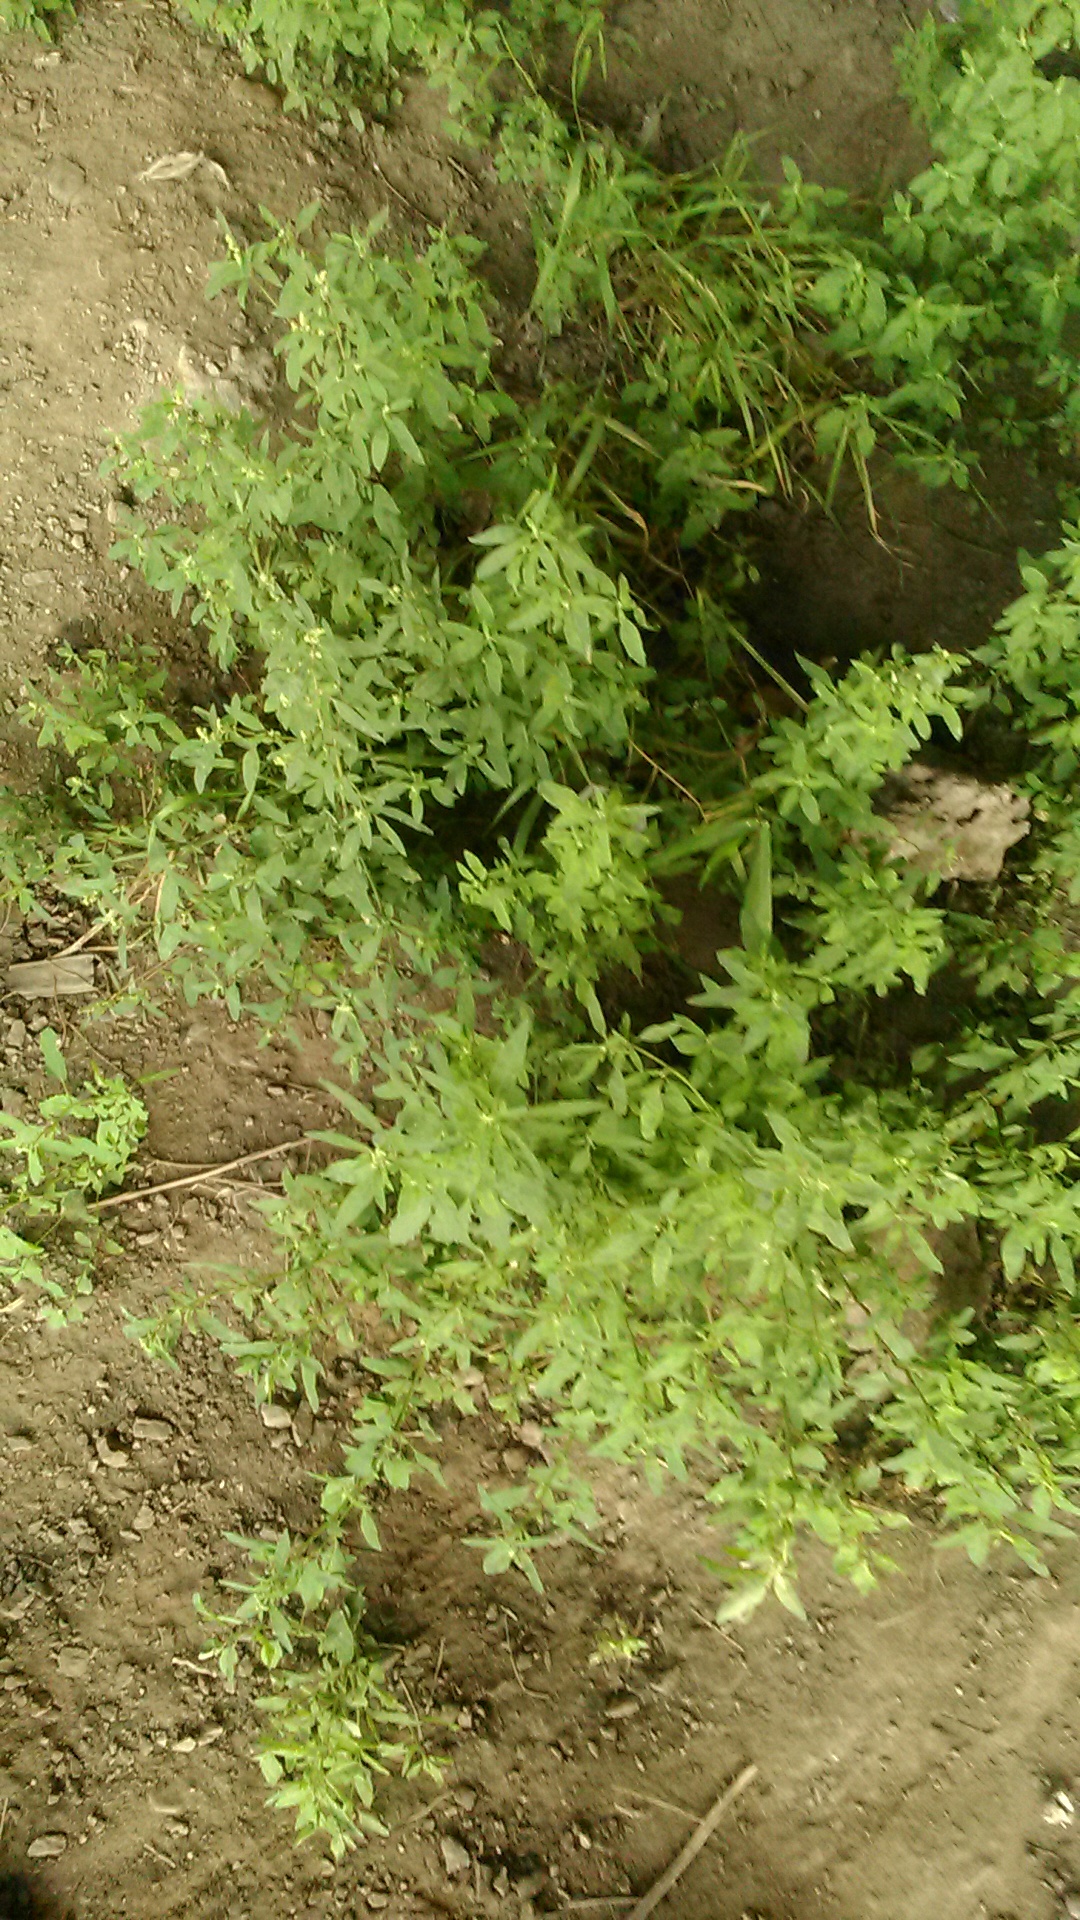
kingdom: Plantae
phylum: Tracheophyta
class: Magnoliopsida
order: Caryophyllales
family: Amaranthaceae
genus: Chenopodium
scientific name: Chenopodium album
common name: Fat-hen
